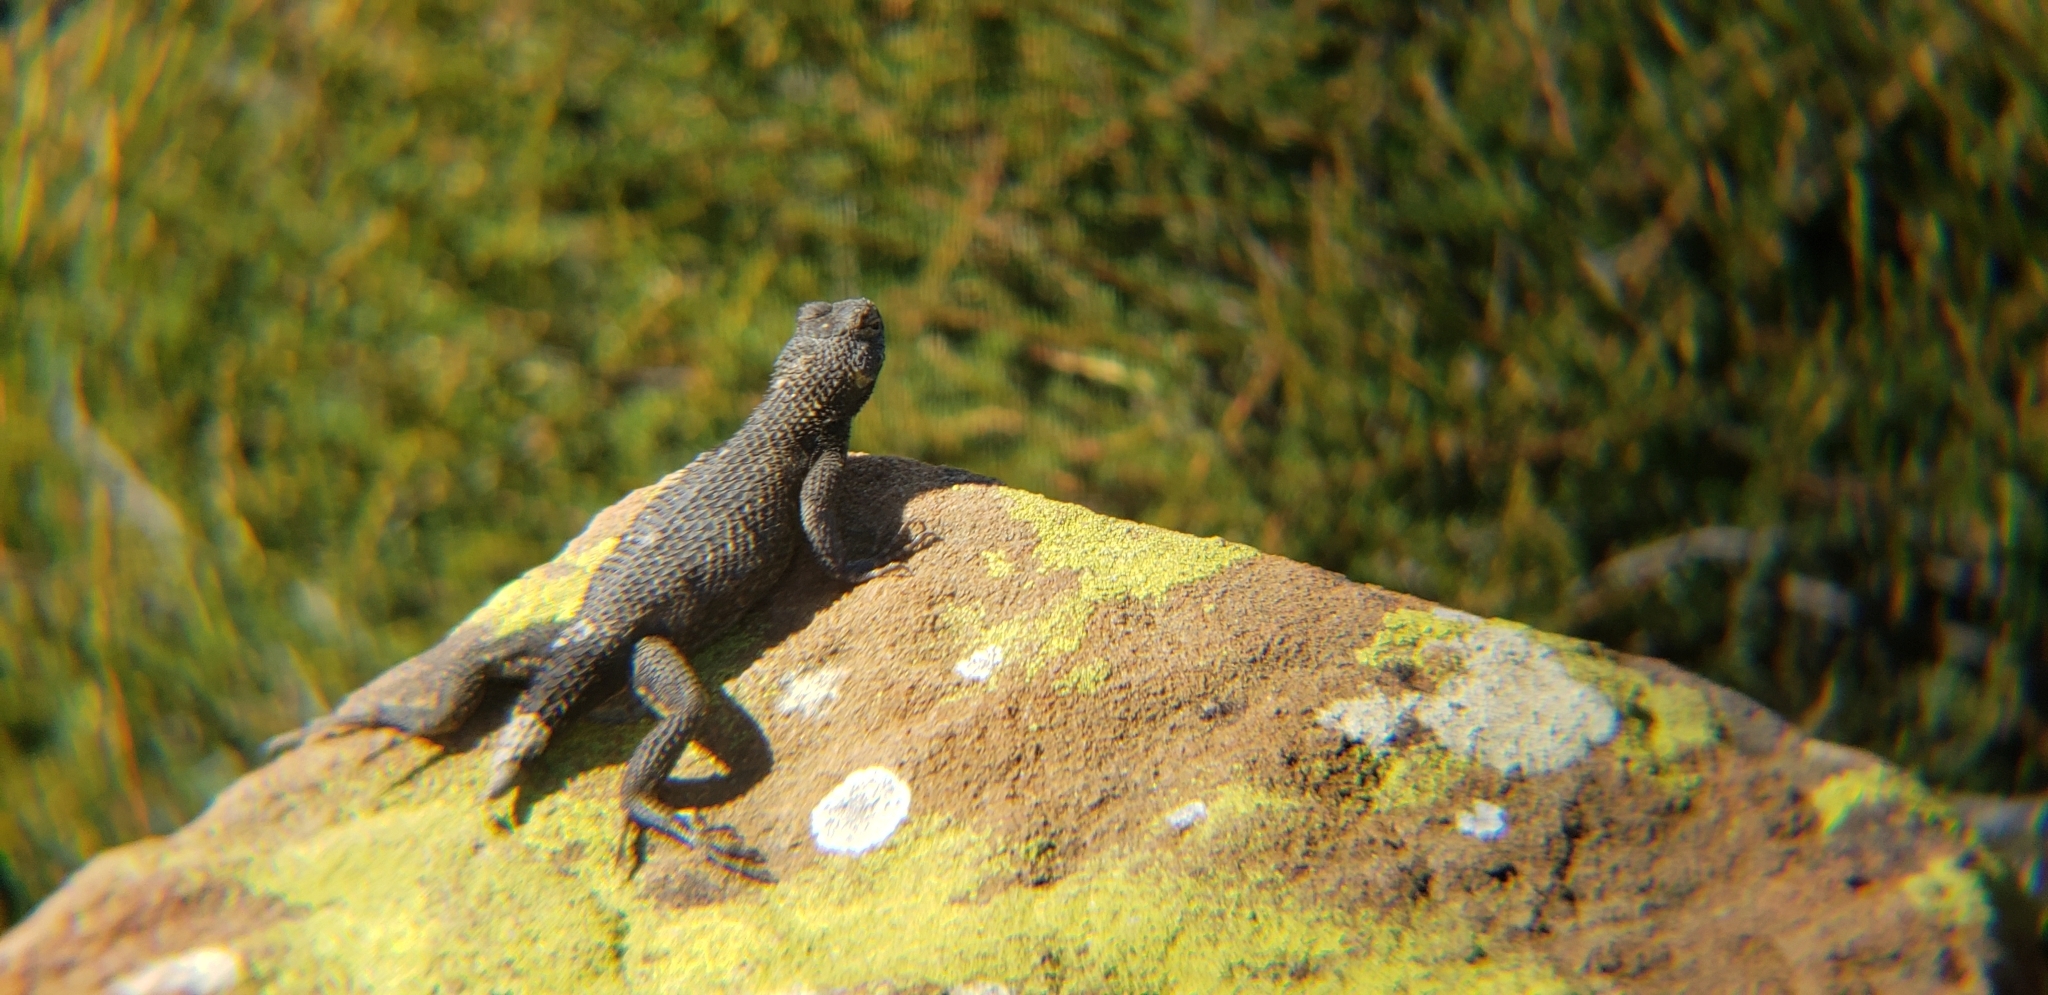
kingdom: Animalia
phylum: Chordata
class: Squamata
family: Phrynosomatidae
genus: Sceloporus
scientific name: Sceloporus occidentalis
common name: Western fence lizard
